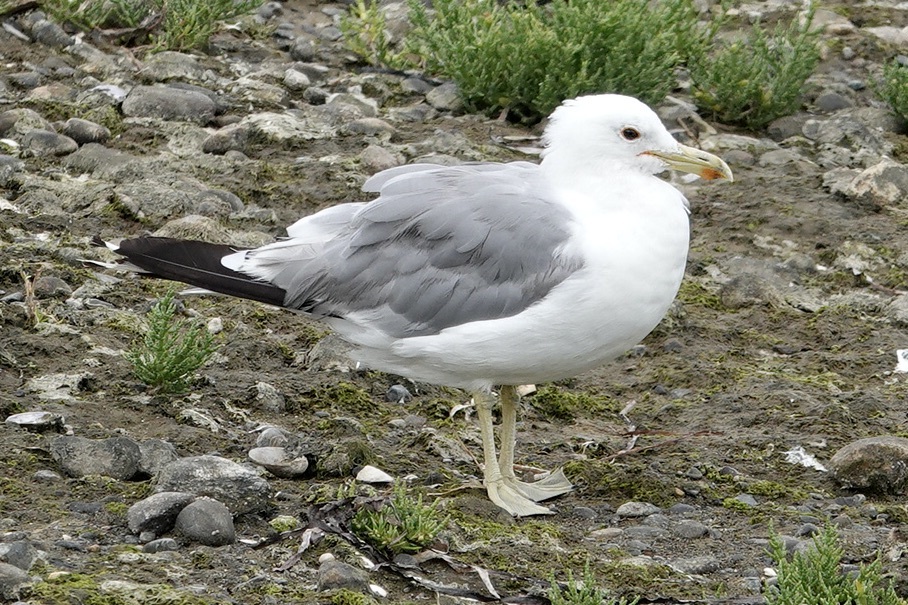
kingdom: Animalia
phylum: Chordata
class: Aves
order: Charadriiformes
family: Laridae
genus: Larus
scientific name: Larus californicus
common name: California gull
